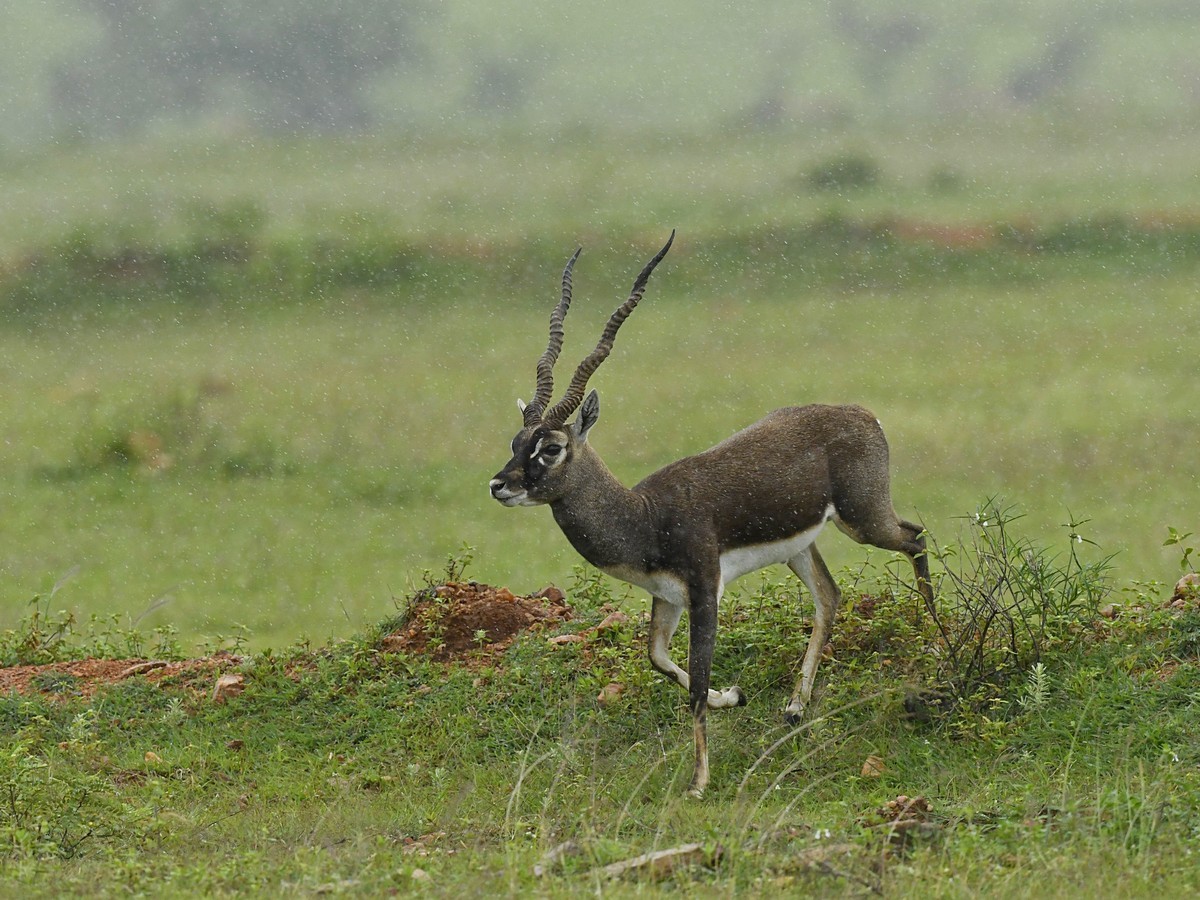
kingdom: Animalia
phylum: Chordata
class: Mammalia
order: Artiodactyla
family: Bovidae
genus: Antilope
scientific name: Antilope cervicapra
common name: Blackbuck
